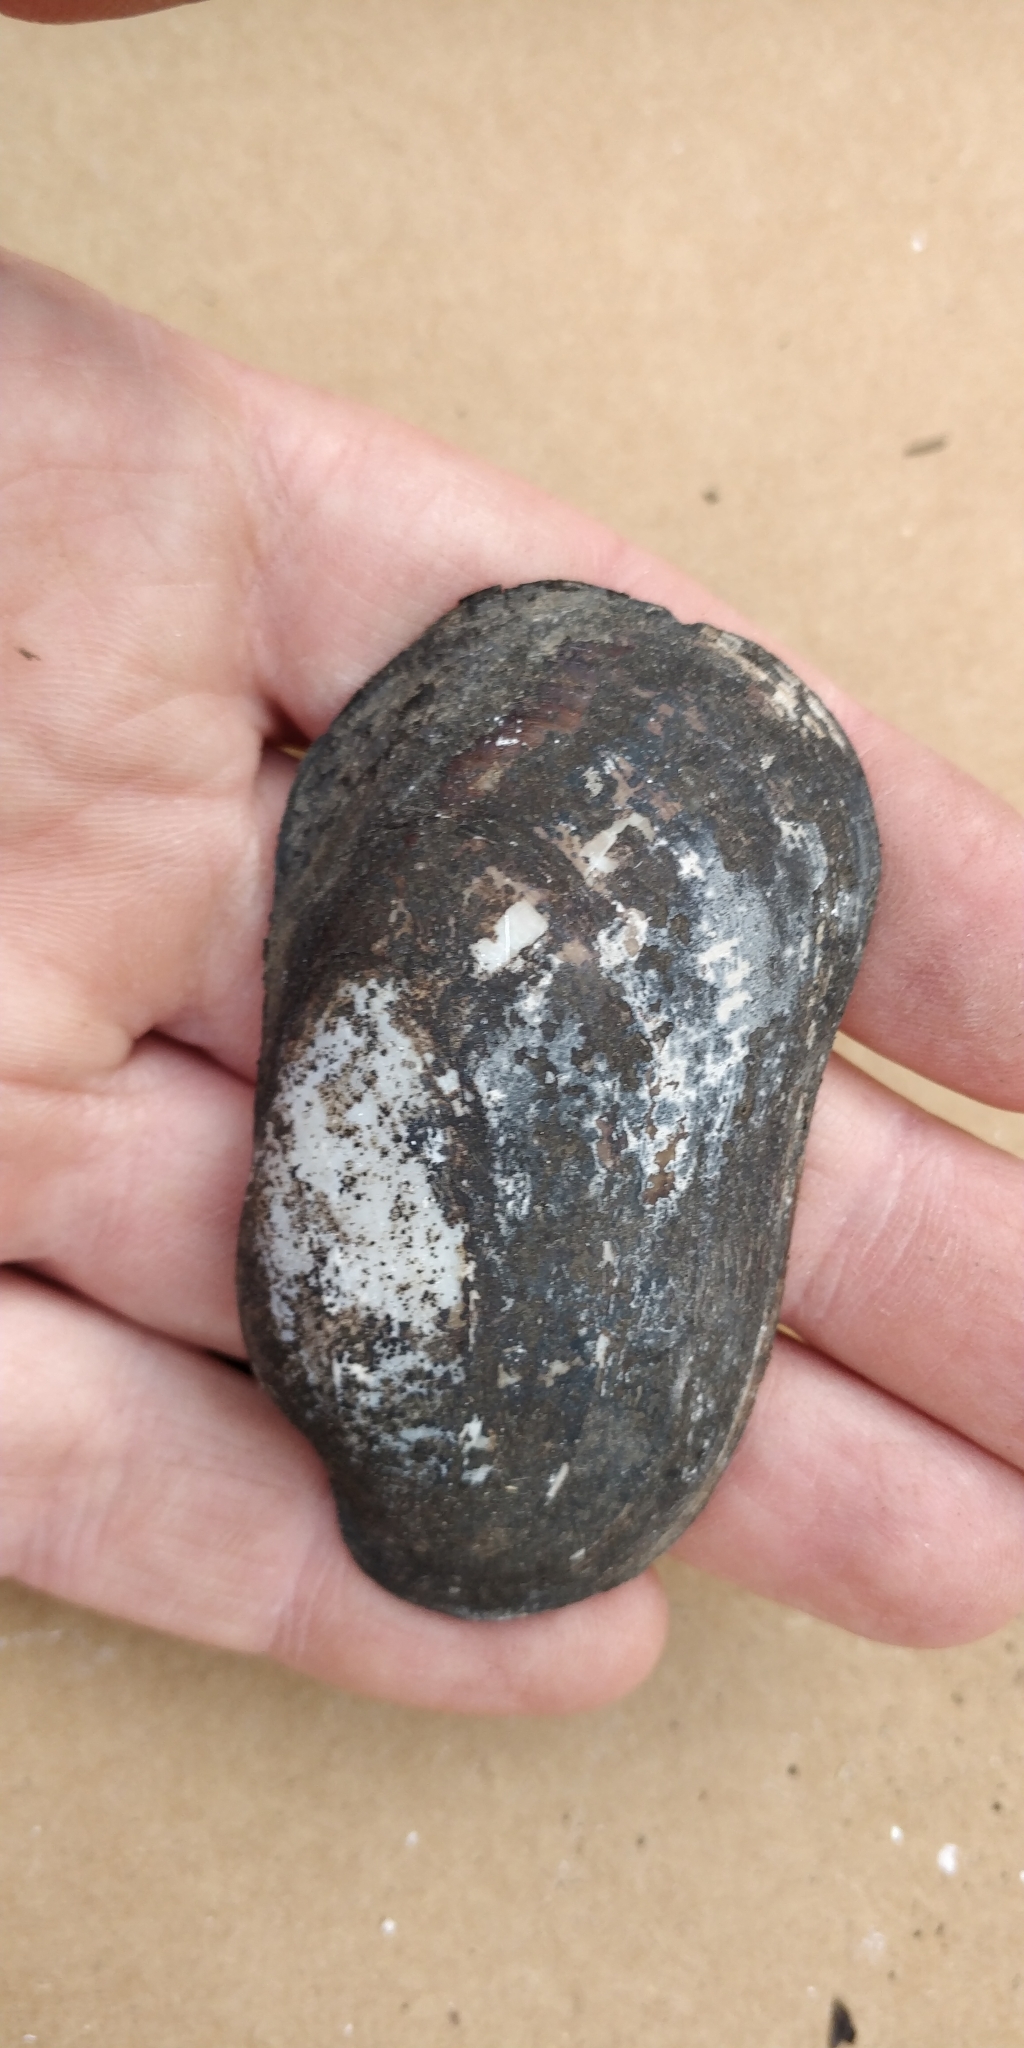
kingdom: Animalia
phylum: Mollusca
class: Bivalvia
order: Unionida
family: Unionidae
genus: Lampsilis
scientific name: Lampsilis siliquoidea
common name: Fatmucket
